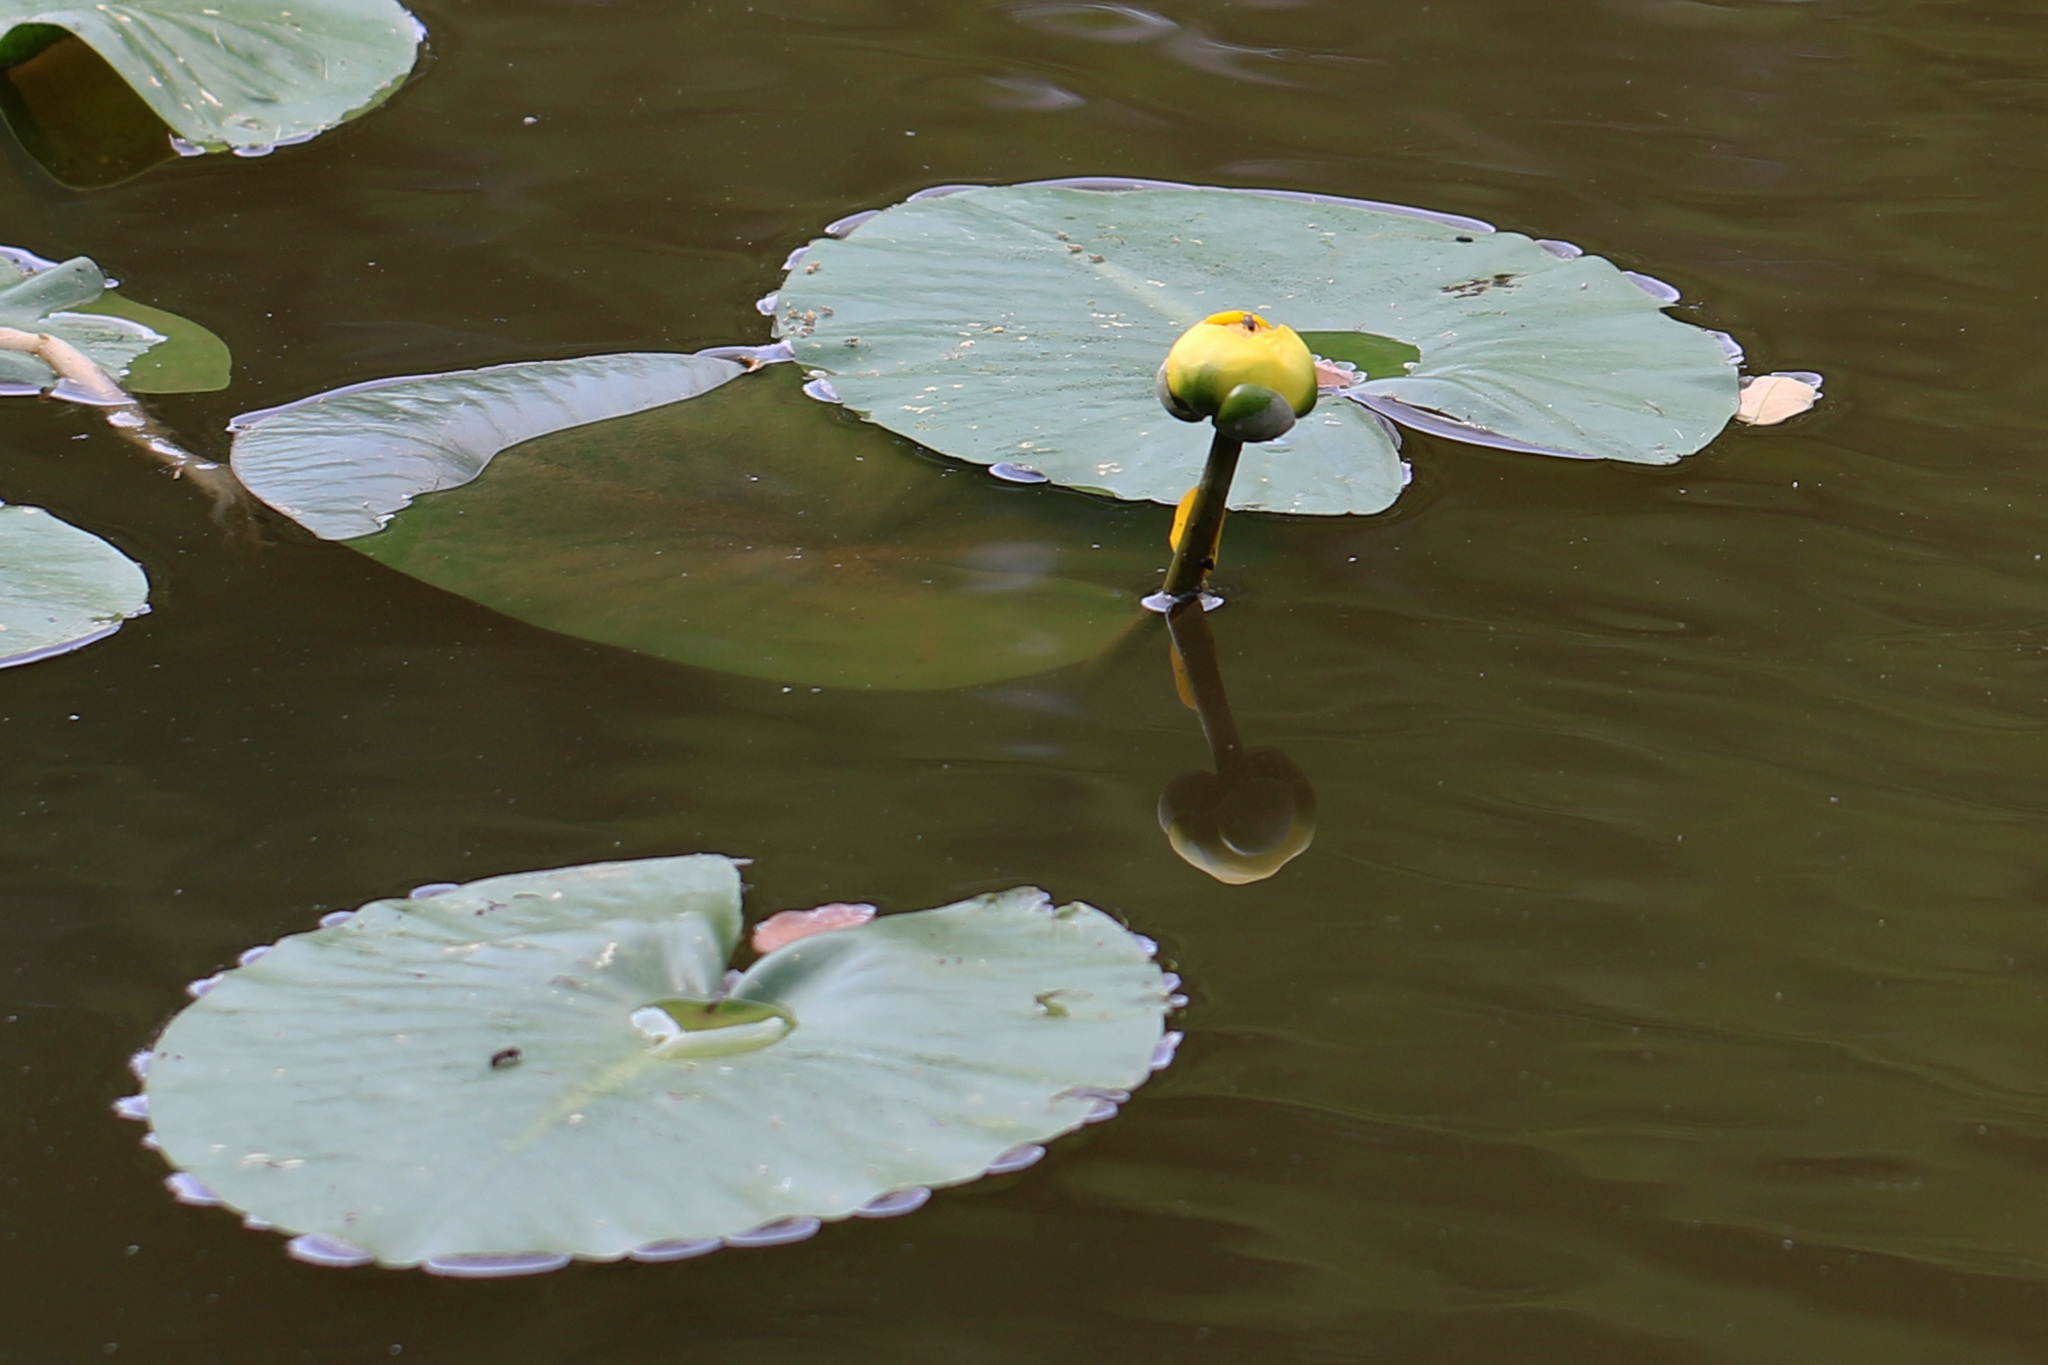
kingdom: Plantae
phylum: Tracheophyta
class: Magnoliopsida
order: Nymphaeales
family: Nymphaeaceae
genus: Nuphar
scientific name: Nuphar advena
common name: Spatter-dock
